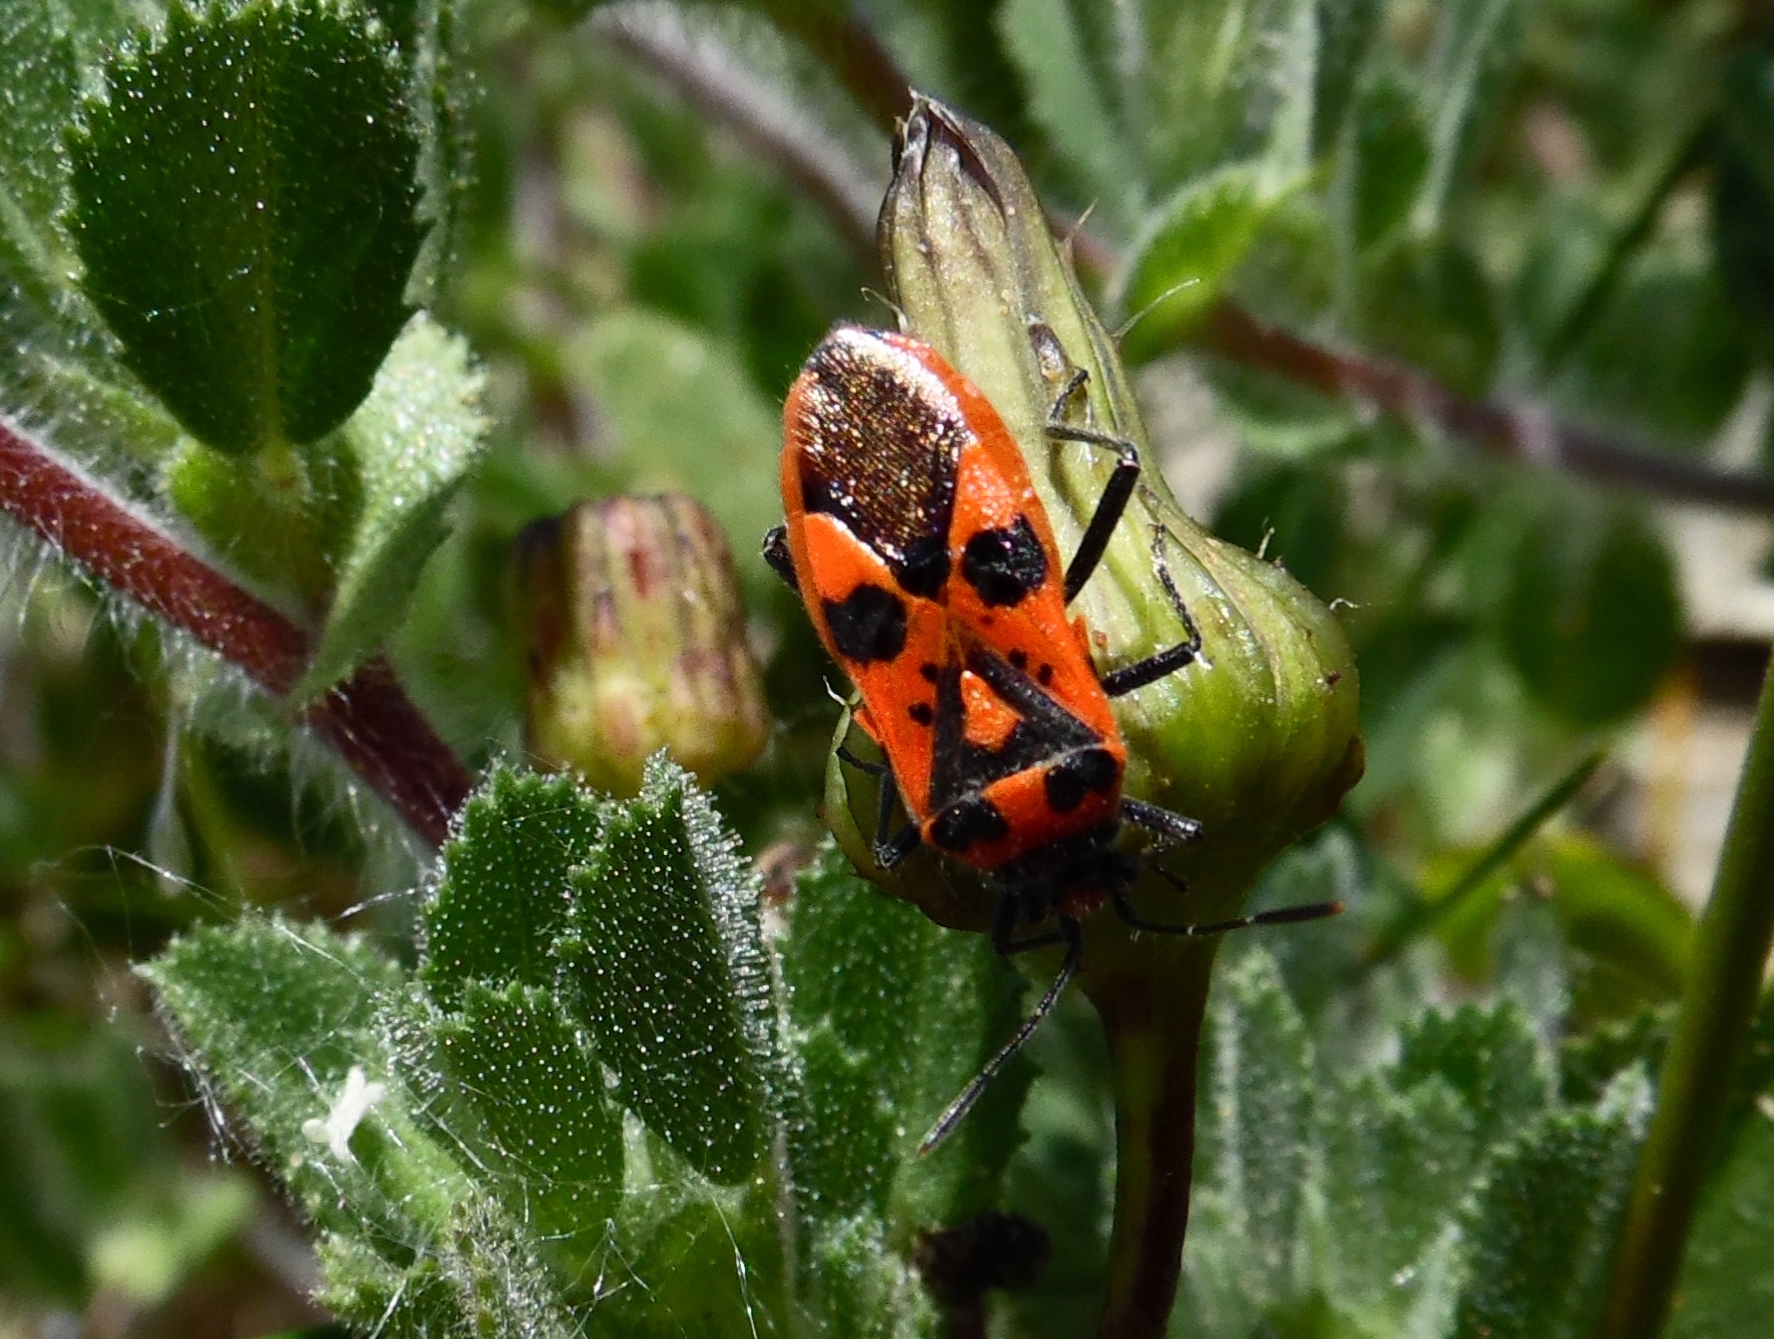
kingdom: Animalia
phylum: Arthropoda
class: Insecta
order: Hemiptera
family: Rhopalidae
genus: Corizus
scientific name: Corizus hyoscyami
